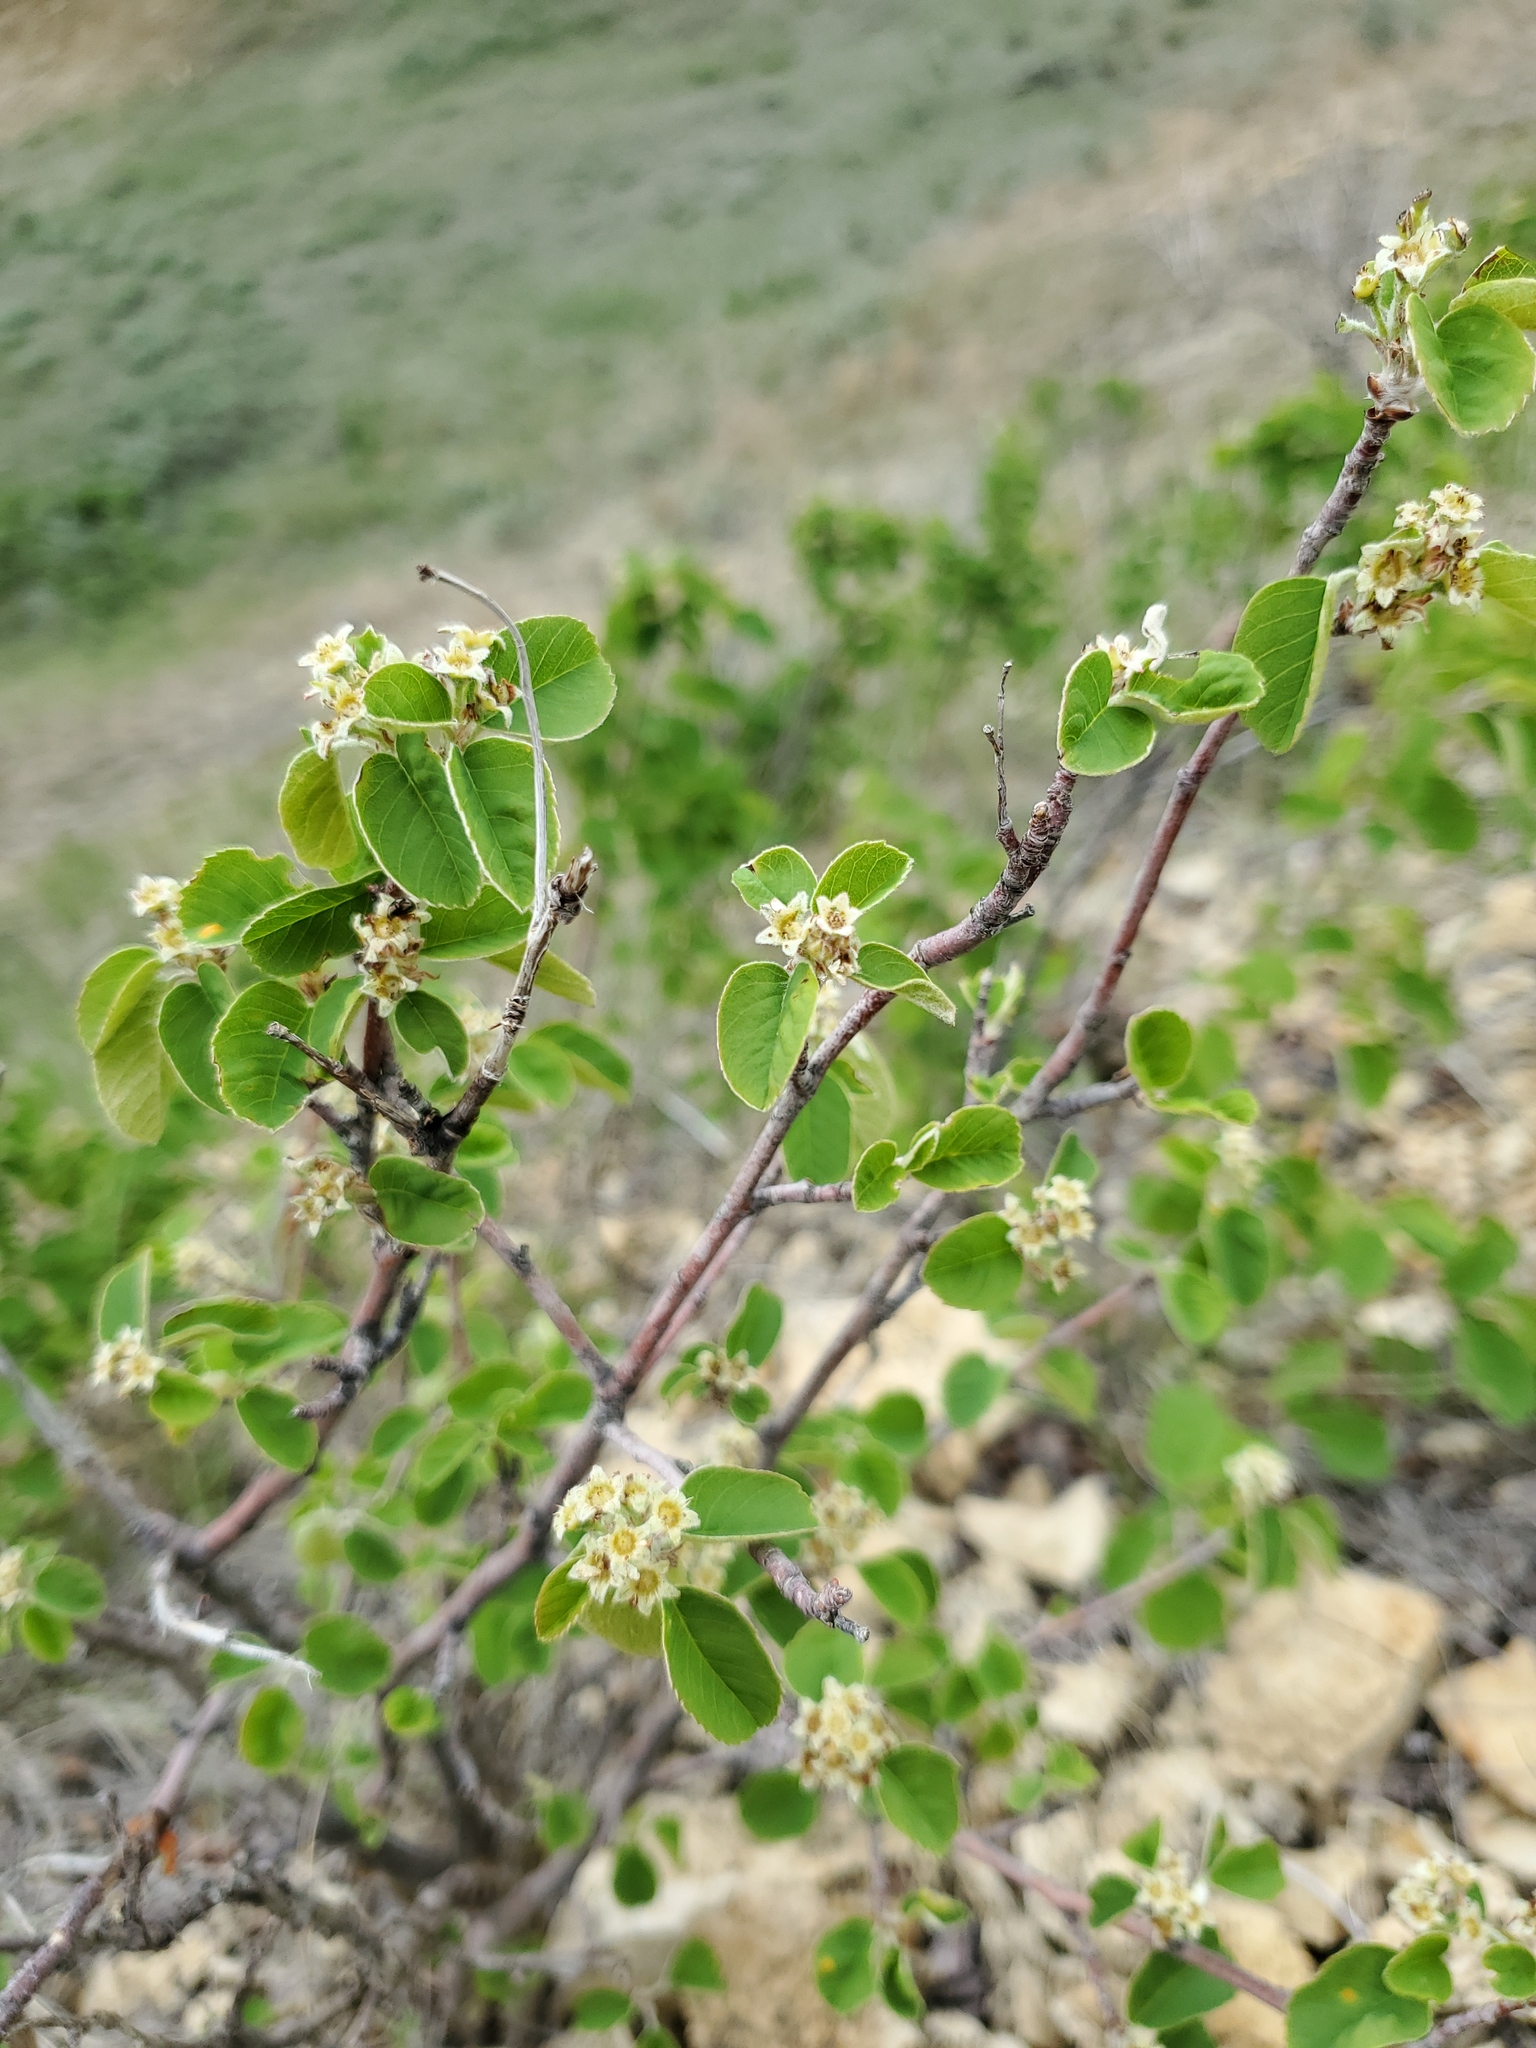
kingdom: Plantae
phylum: Tracheophyta
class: Magnoliopsida
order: Rosales
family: Rosaceae
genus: Amelanchier
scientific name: Amelanchier alnifolia
